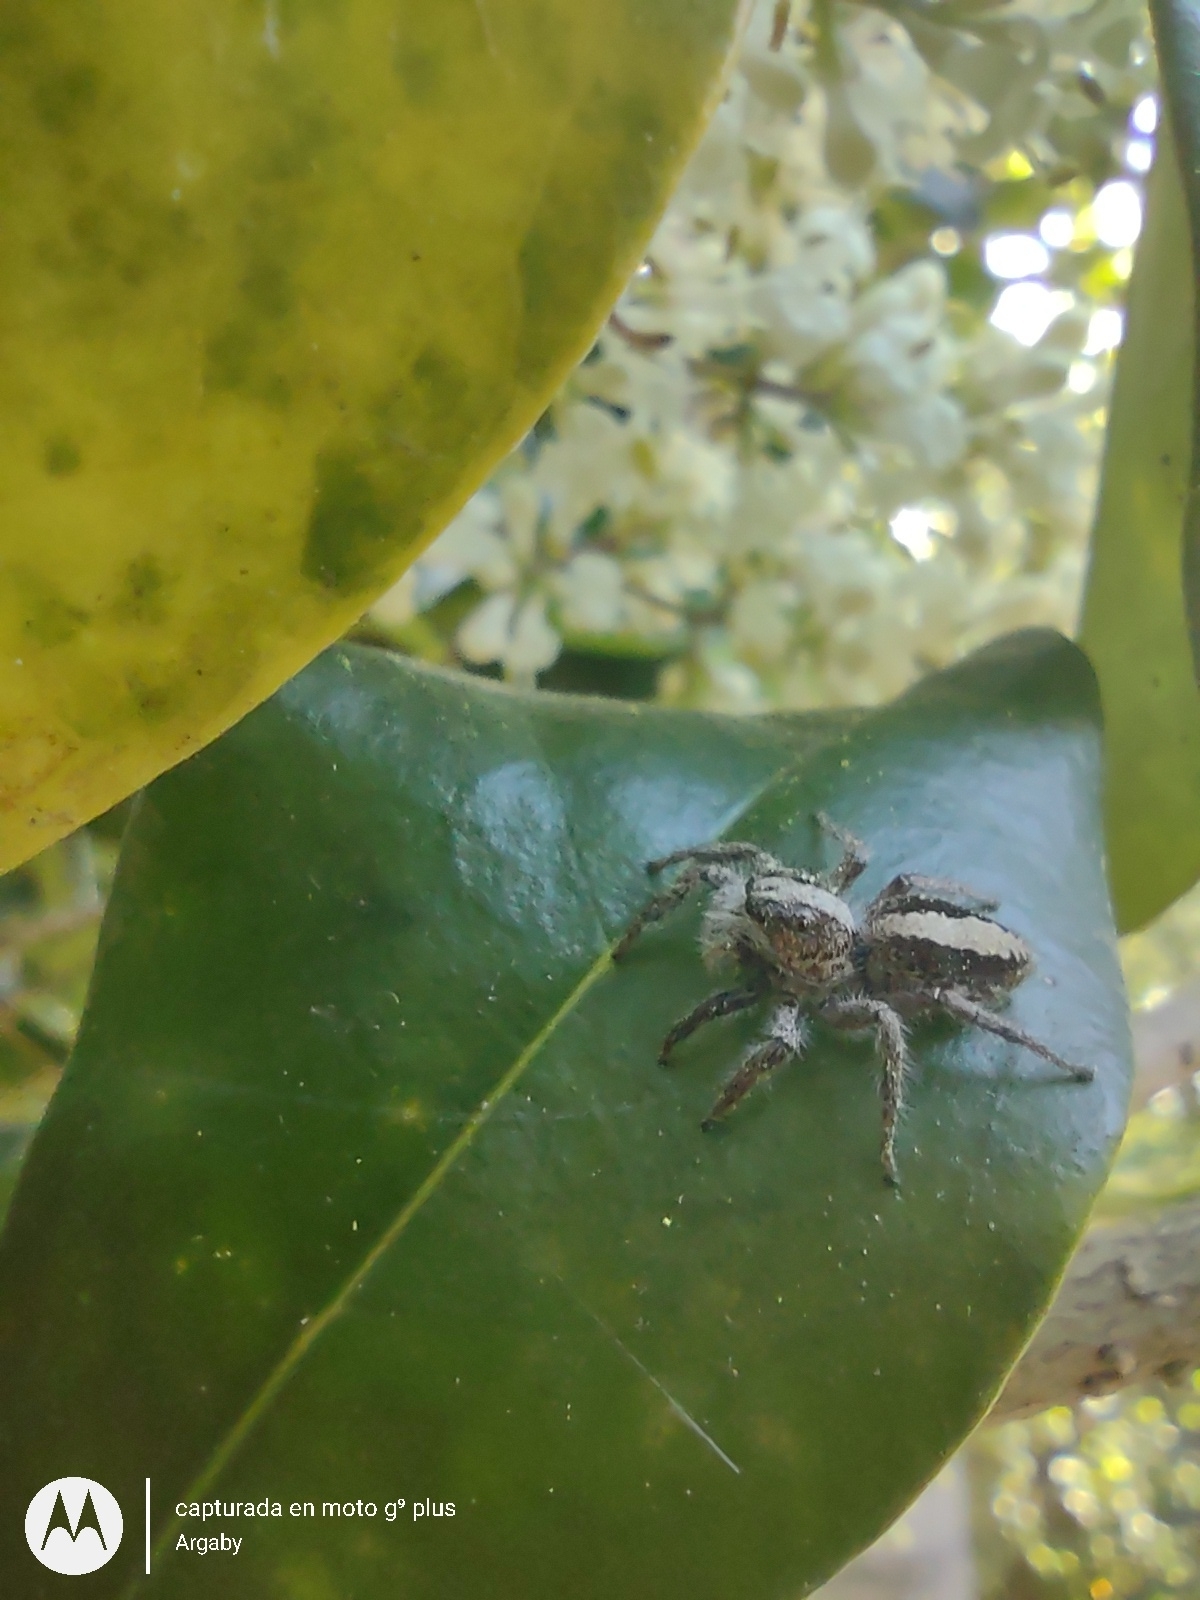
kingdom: Animalia
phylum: Arthropoda
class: Arachnida
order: Araneae
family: Salticidae
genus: Megafreya
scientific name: Megafreya sutrix
